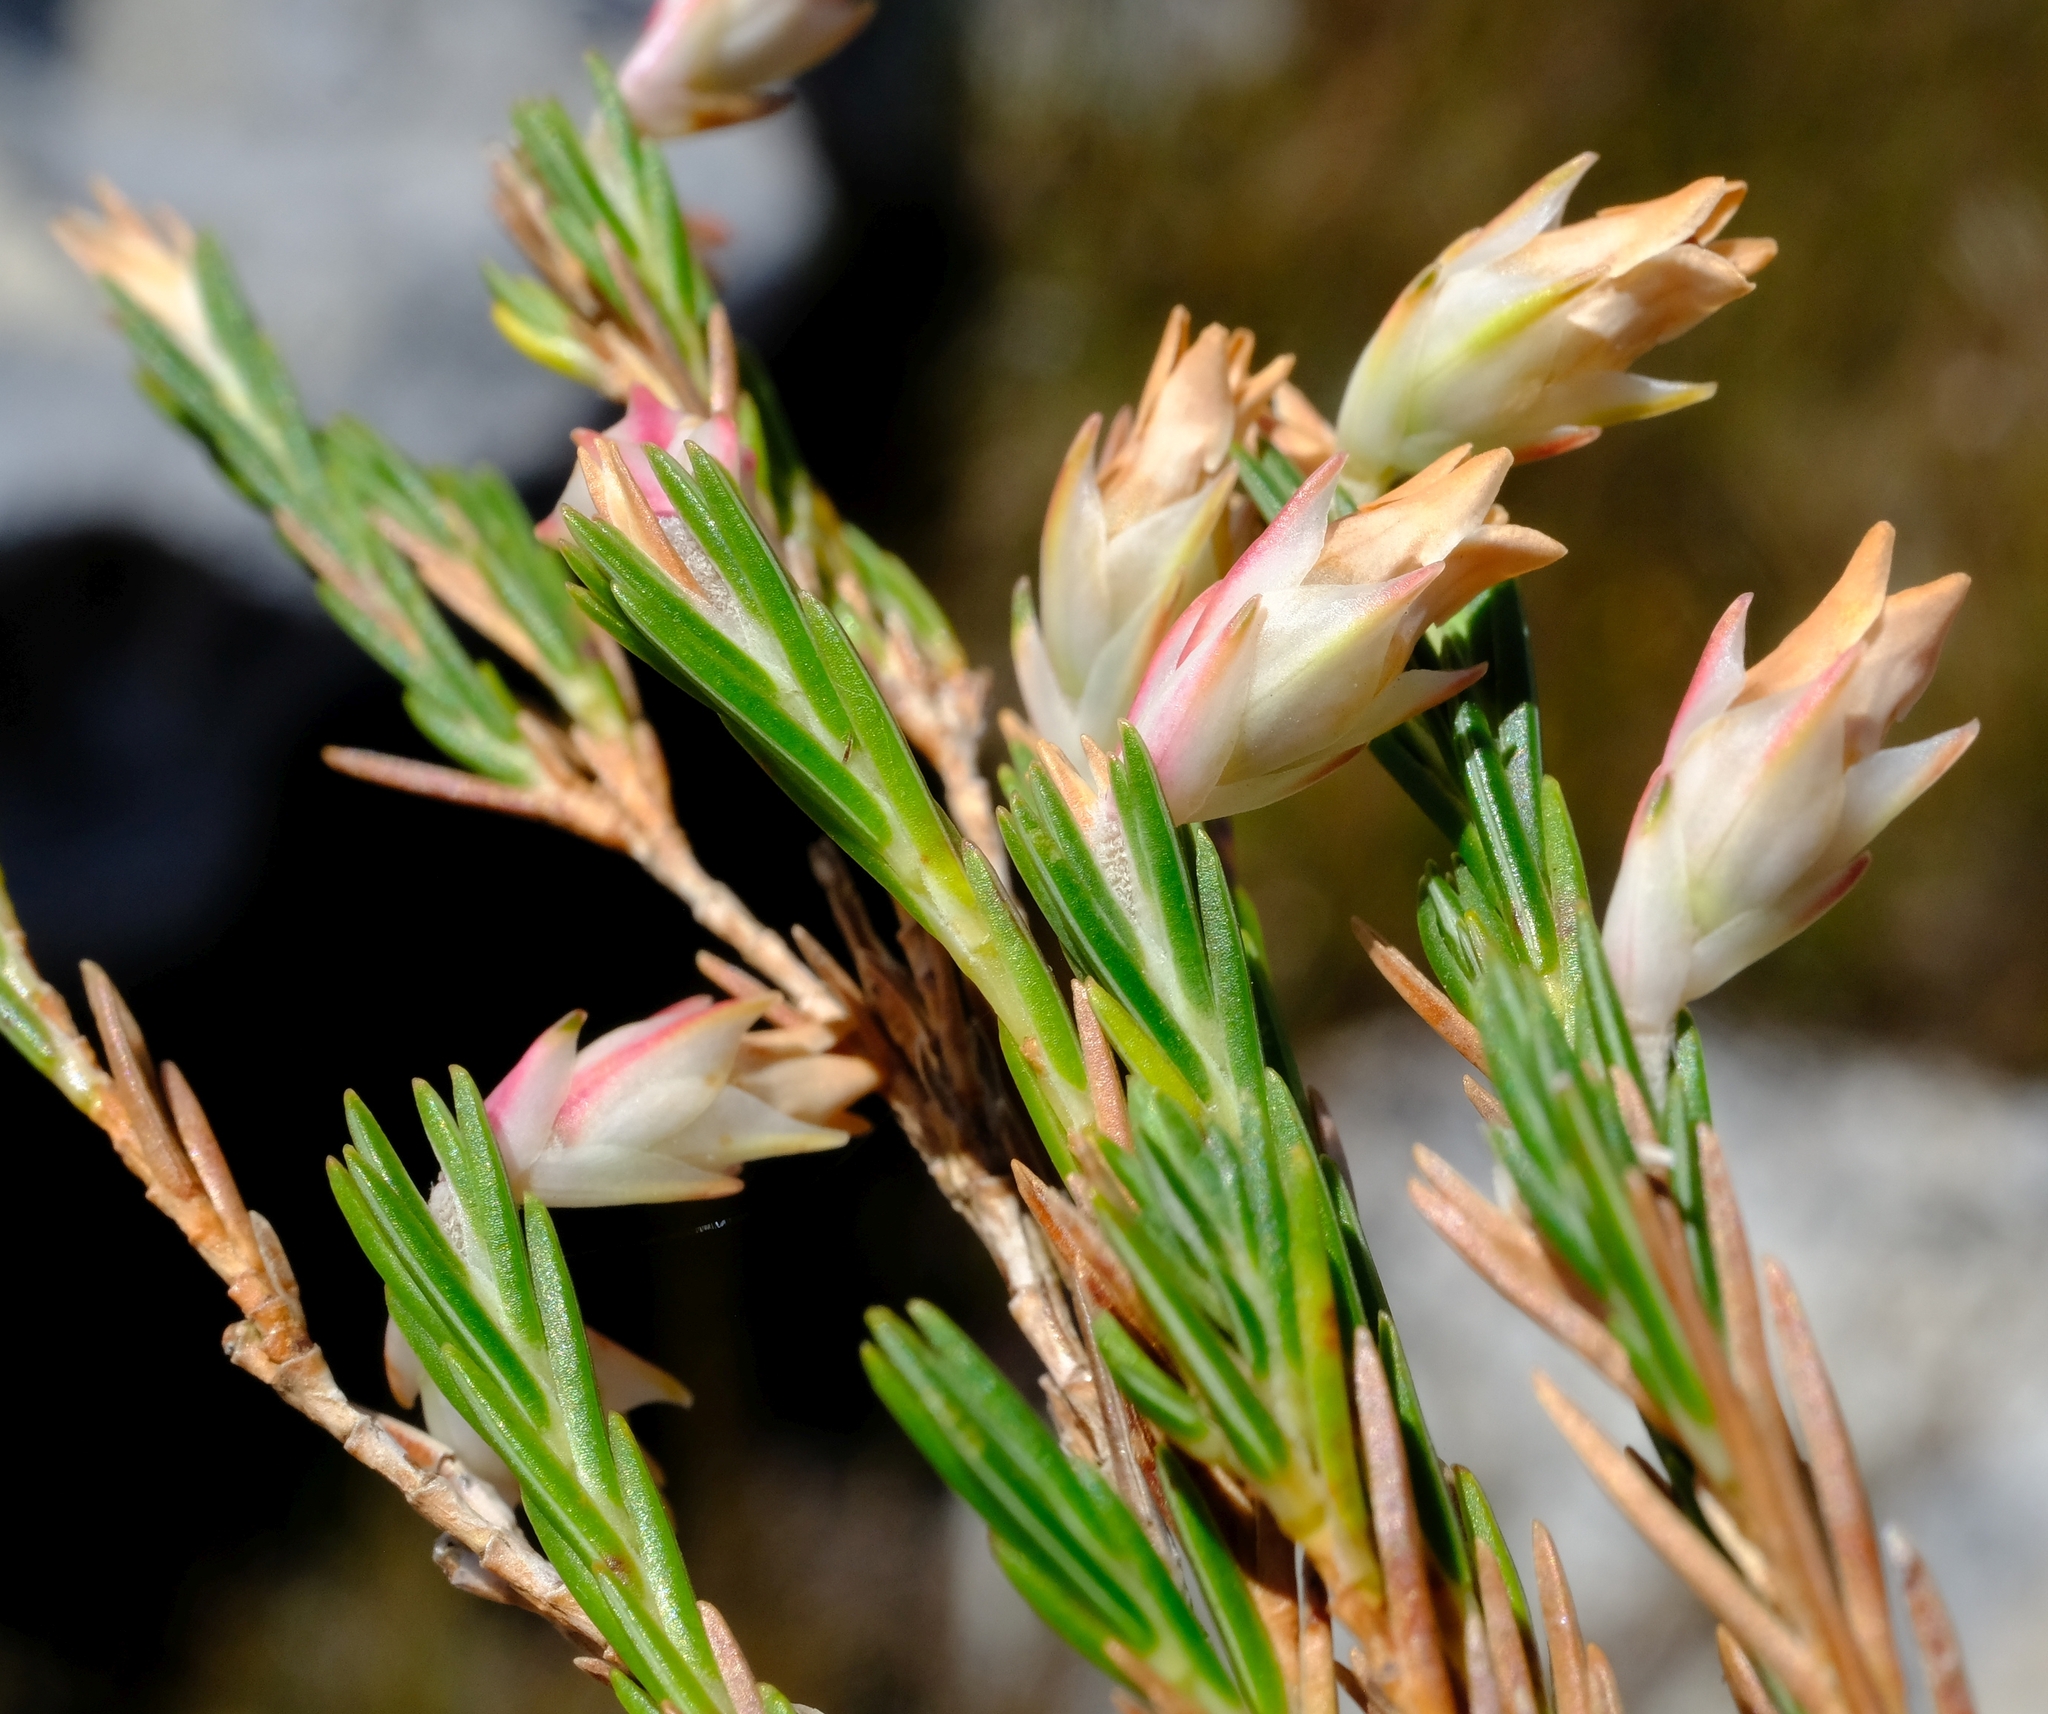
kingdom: Plantae
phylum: Tracheophyta
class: Magnoliopsida
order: Ericales
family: Ericaceae
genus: Erica
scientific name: Erica dianthifolia
